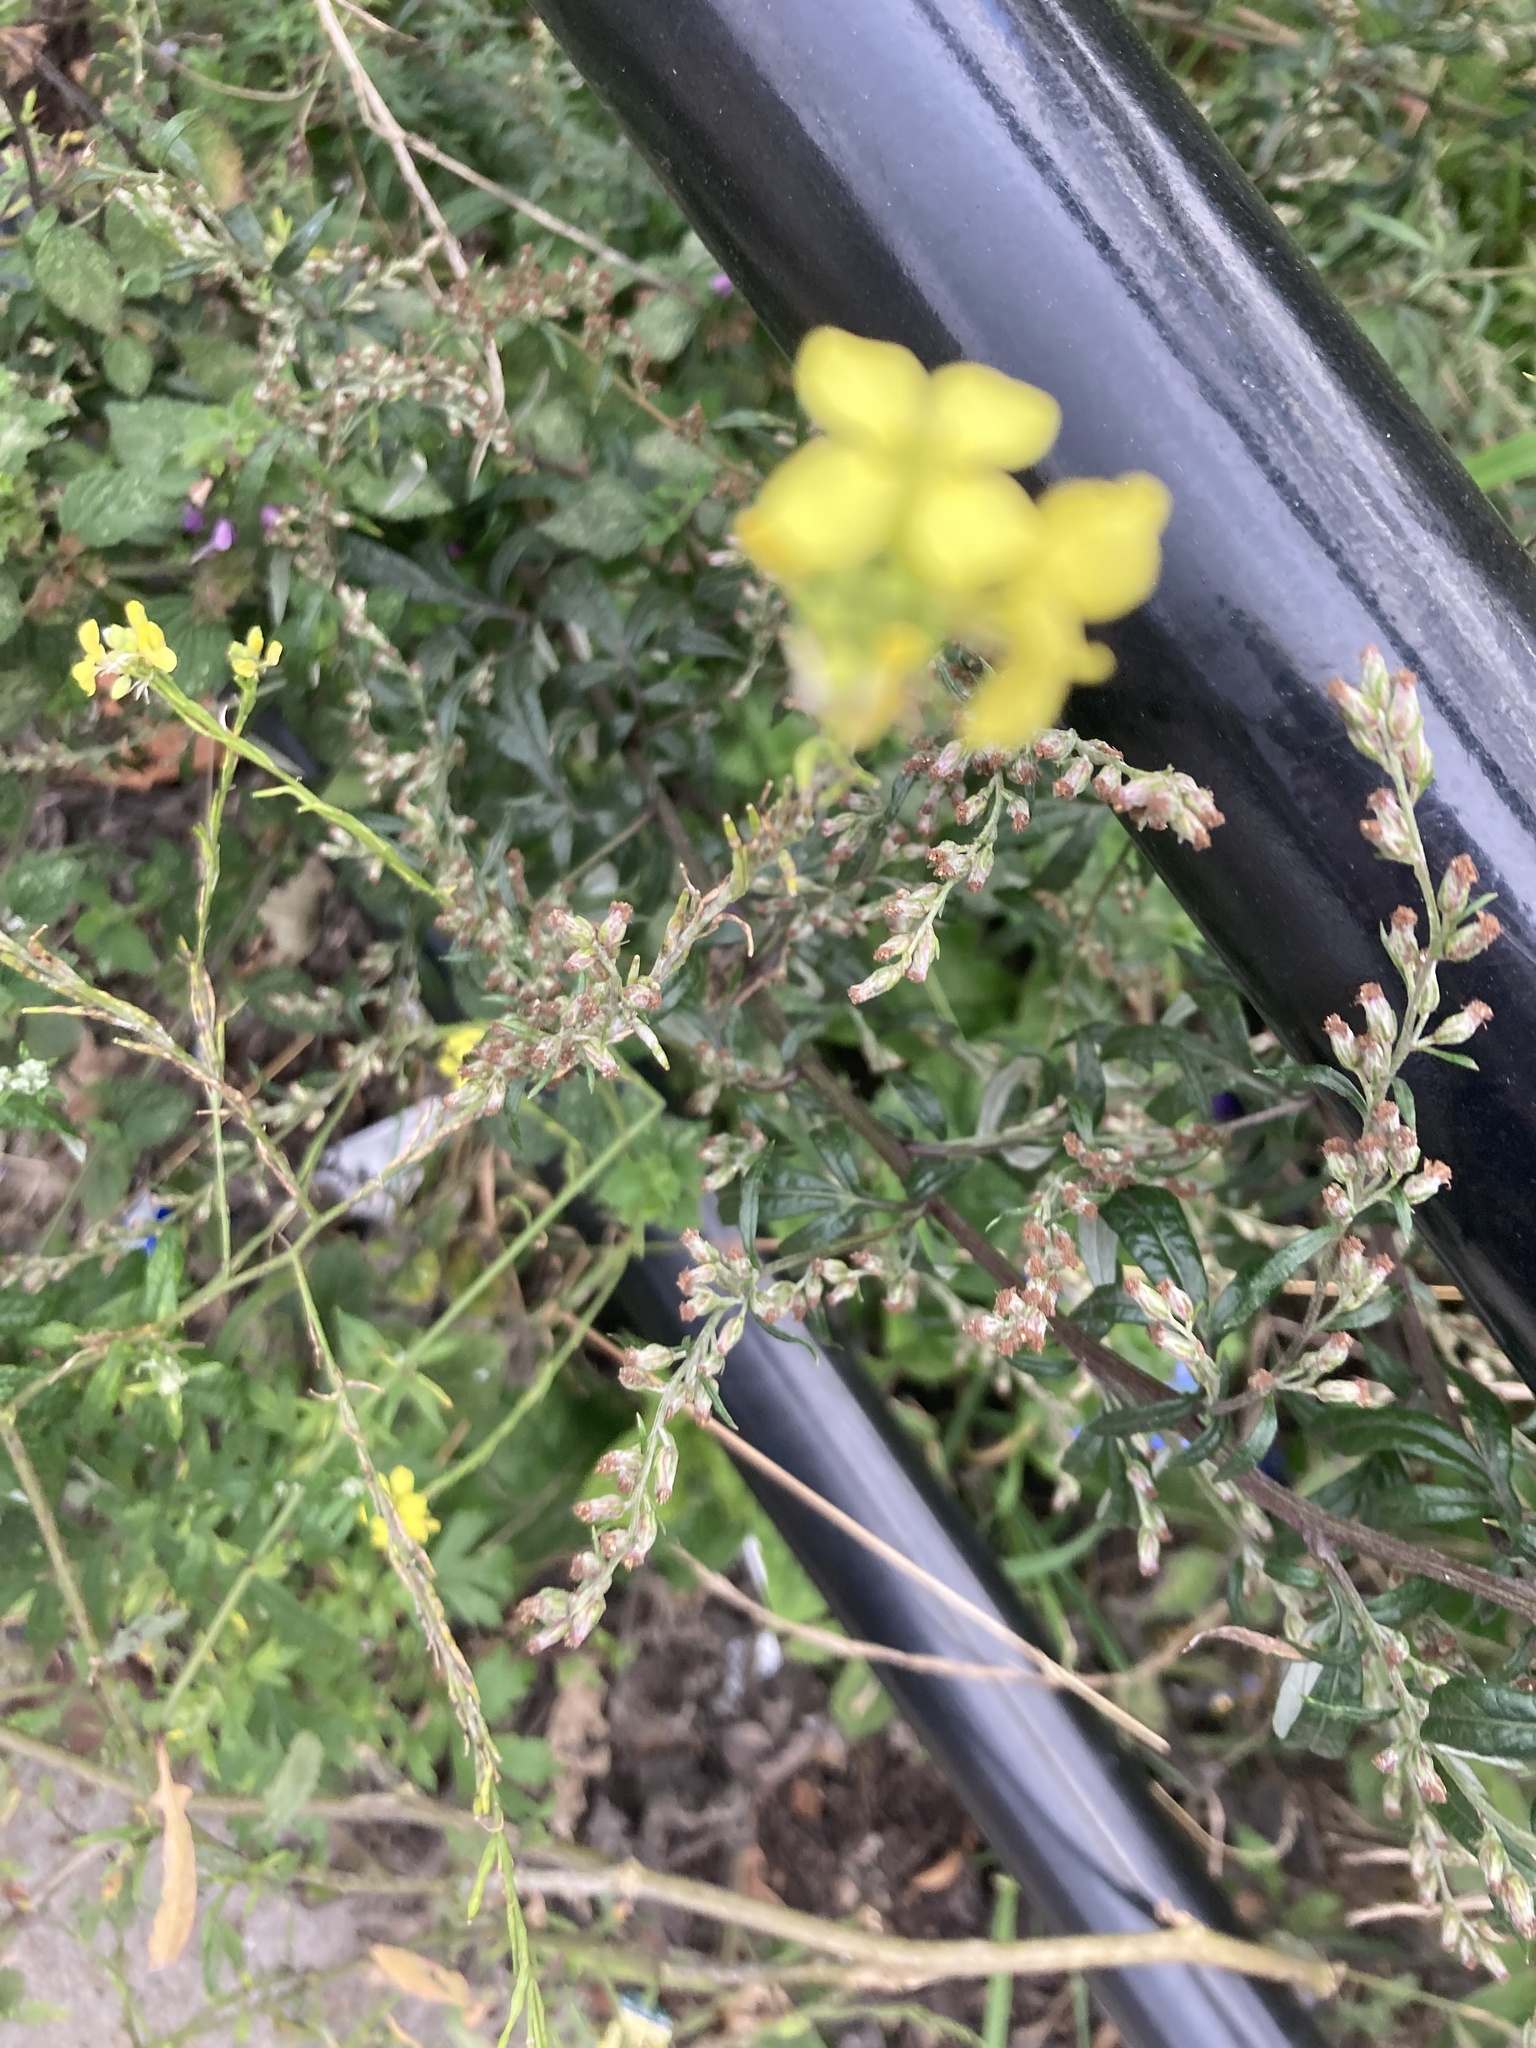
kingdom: Plantae
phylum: Tracheophyta
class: Magnoliopsida
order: Brassicales
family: Brassicaceae
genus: Hirschfeldia
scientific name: Hirschfeldia incana
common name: Hoary mustard
